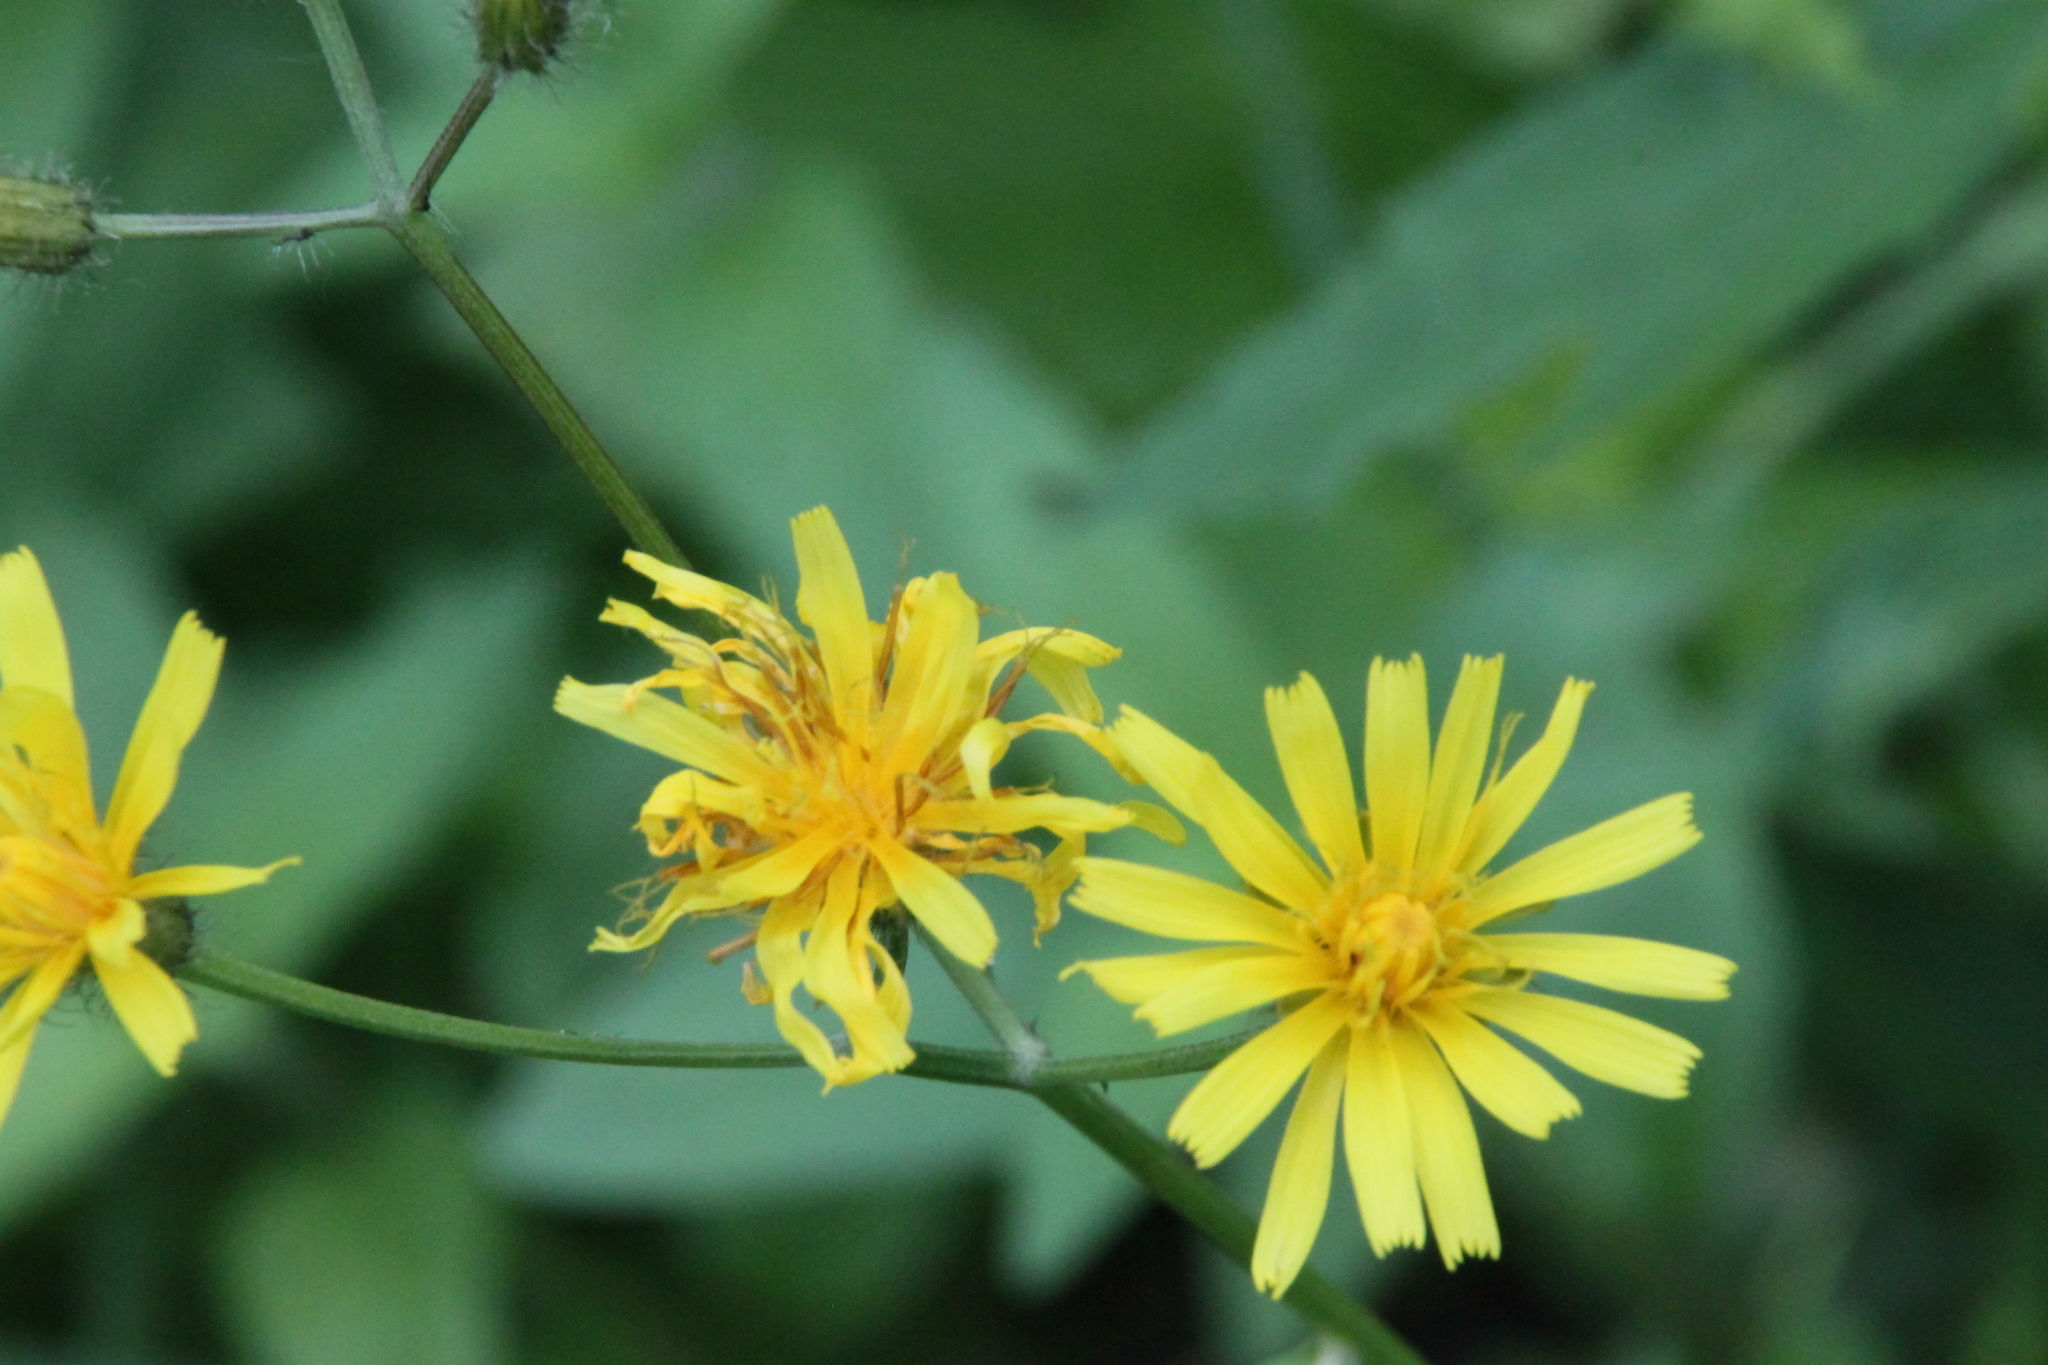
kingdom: Plantae
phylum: Tracheophyta
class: Magnoliopsida
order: Asterales
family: Asteraceae
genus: Crepis
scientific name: Crepis paludosa
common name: Marsh hawk's-beard
